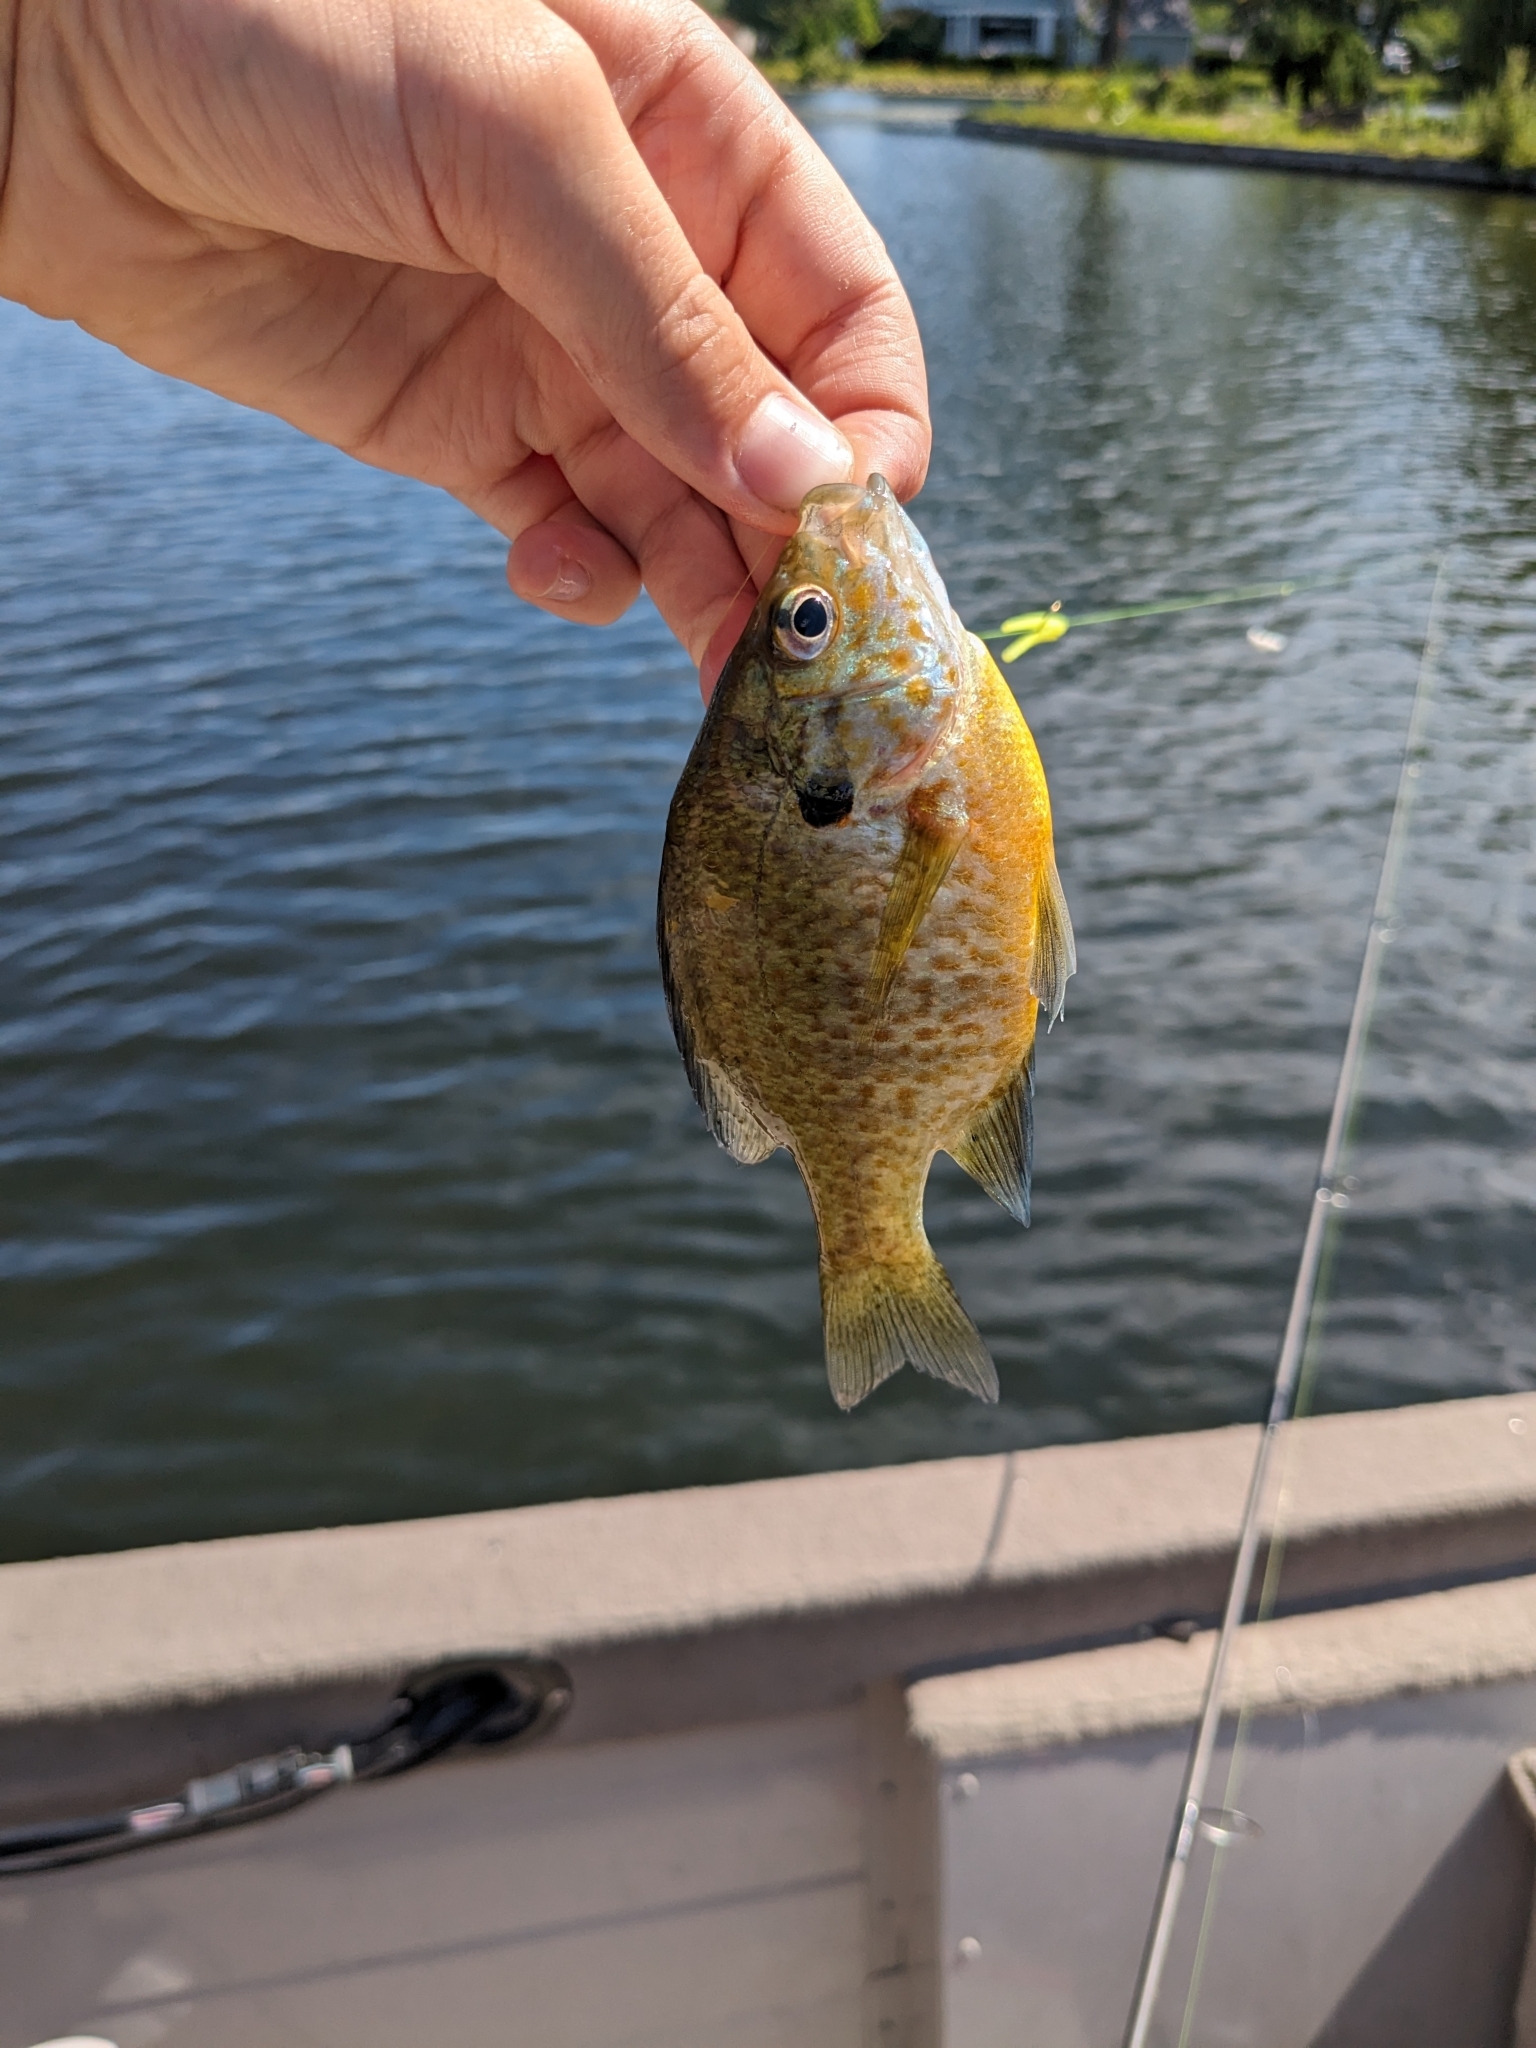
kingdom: Animalia
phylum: Chordata
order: Perciformes
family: Centrarchidae
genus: Lepomis
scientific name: Lepomis
